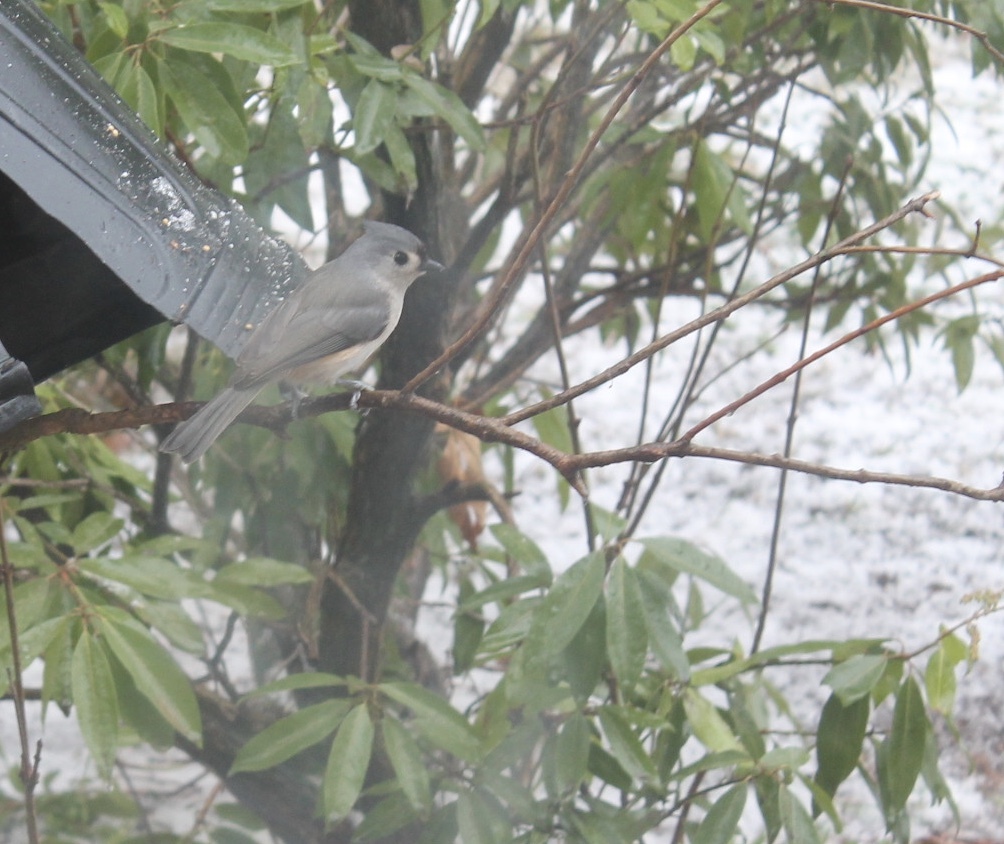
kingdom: Animalia
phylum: Chordata
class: Aves
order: Passeriformes
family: Paridae
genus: Baeolophus
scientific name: Baeolophus bicolor
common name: Tufted titmouse
